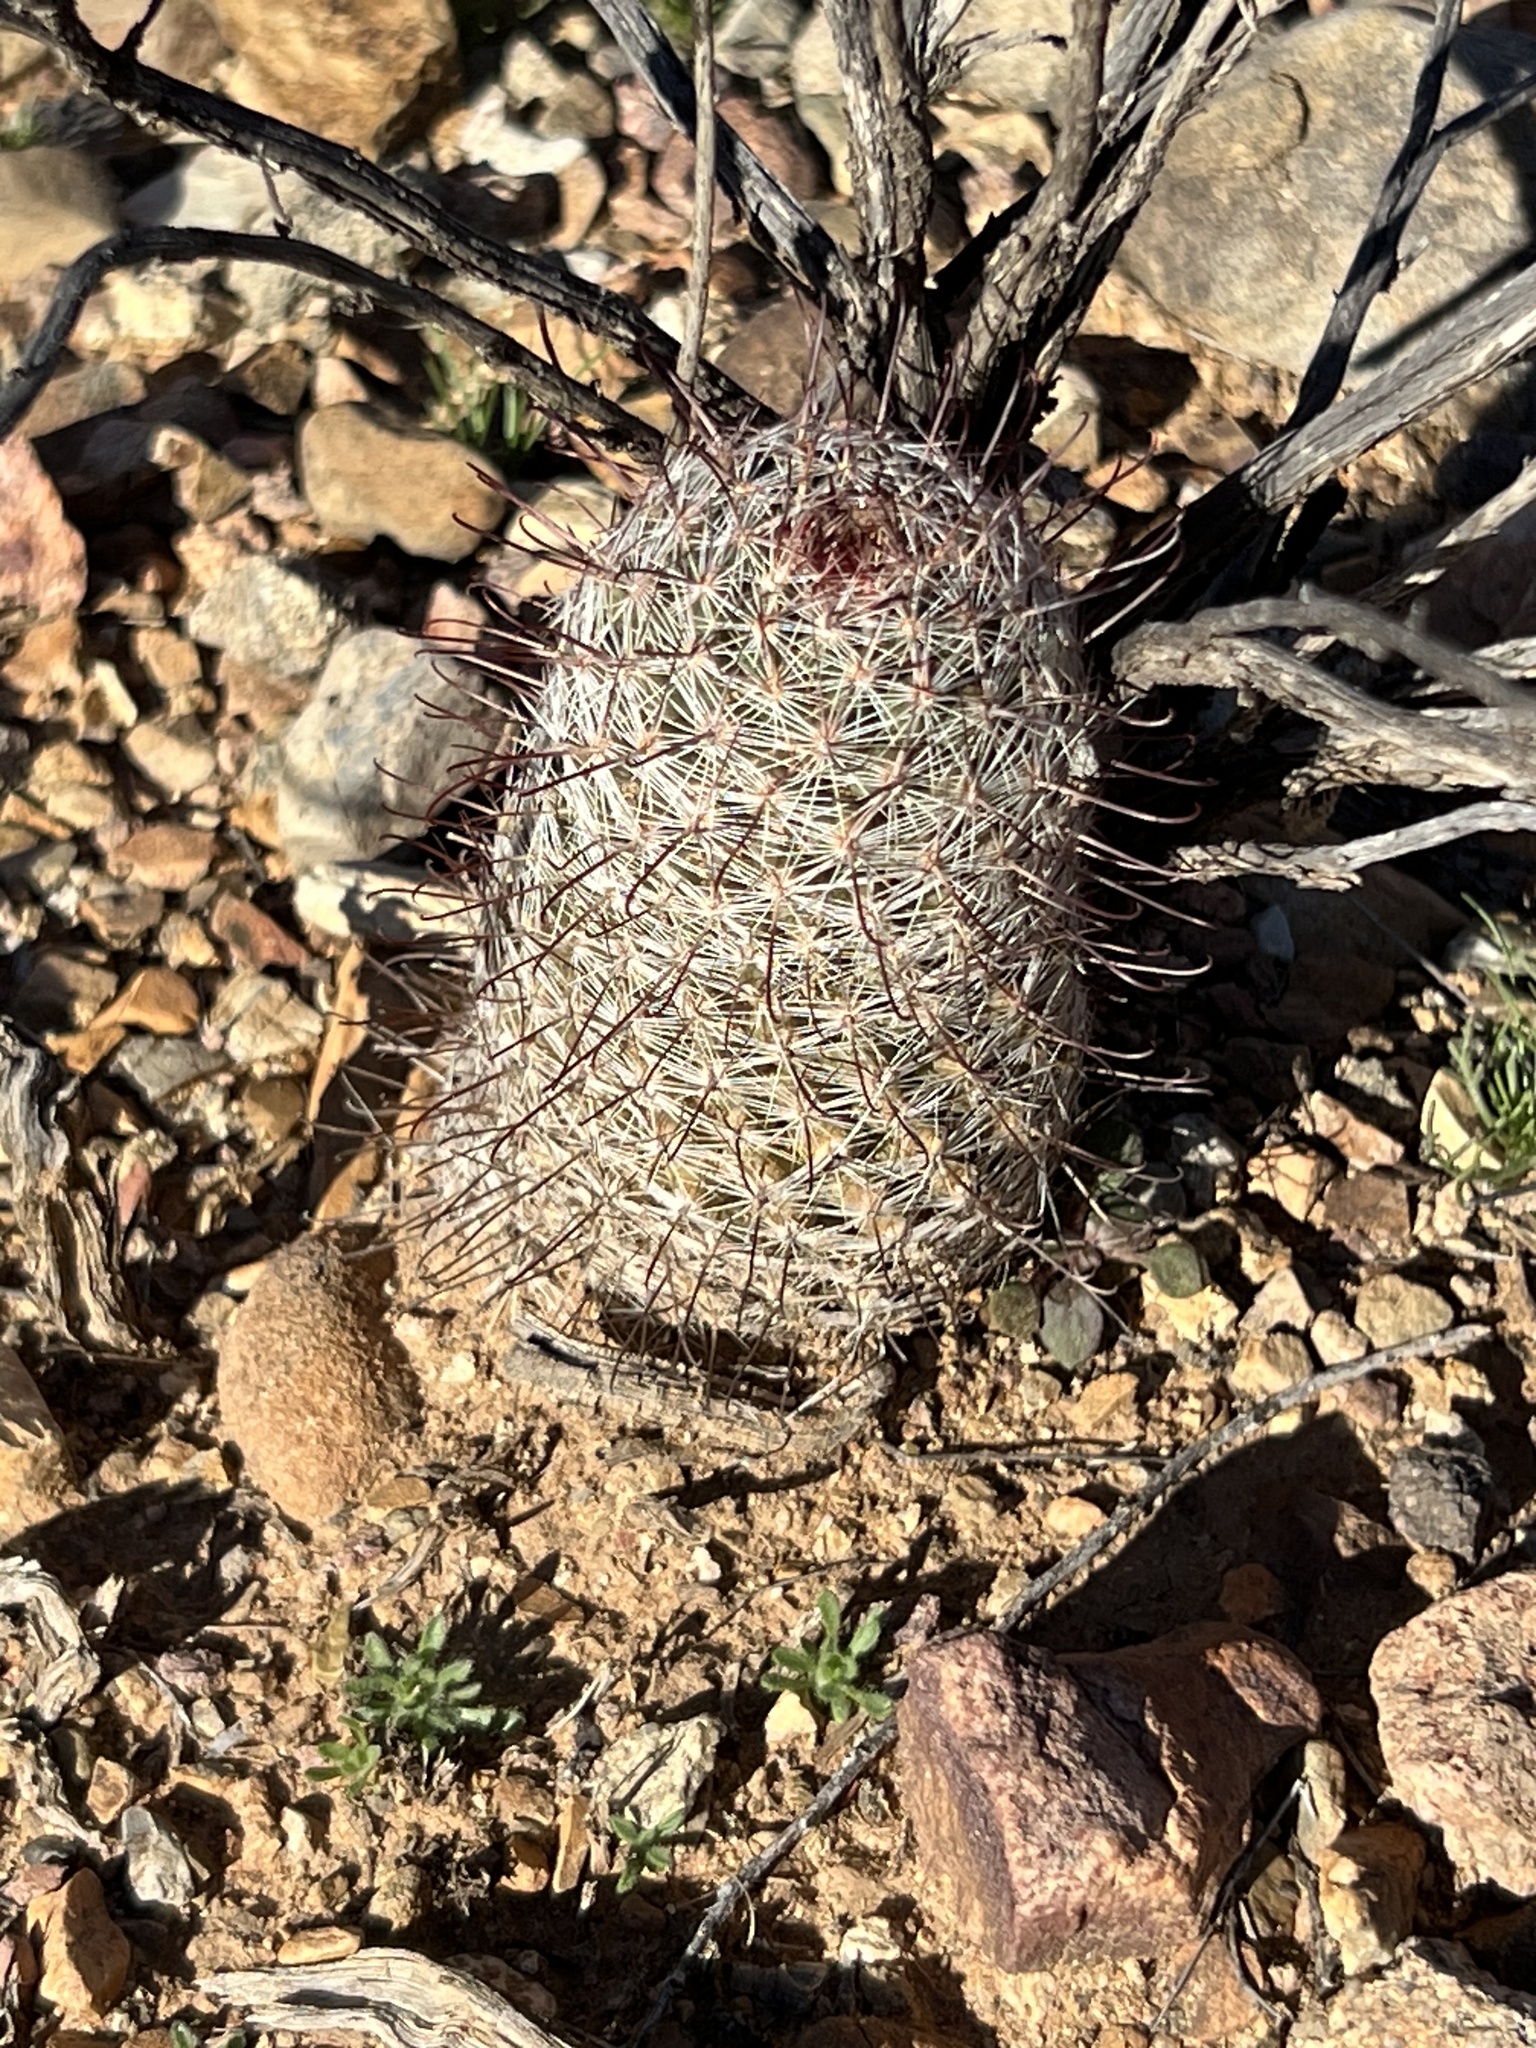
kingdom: Plantae
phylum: Tracheophyta
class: Magnoliopsida
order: Caryophyllales
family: Cactaceae
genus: Cochemiea
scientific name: Cochemiea grahamii
